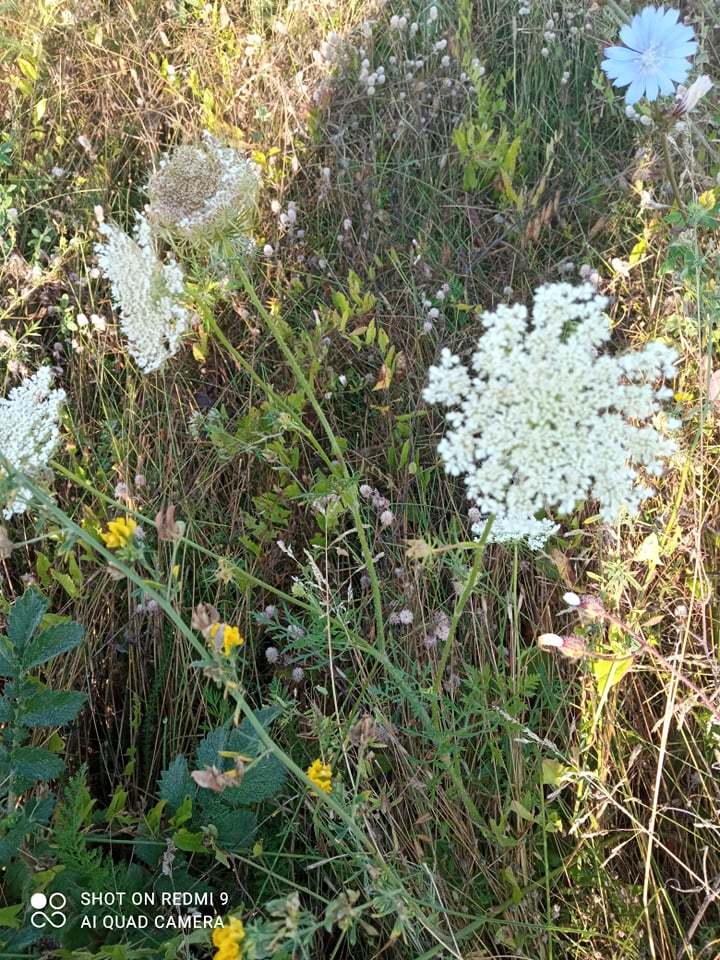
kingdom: Plantae
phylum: Tracheophyta
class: Magnoliopsida
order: Apiales
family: Apiaceae
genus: Daucus
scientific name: Daucus carota
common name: Wild carrot
